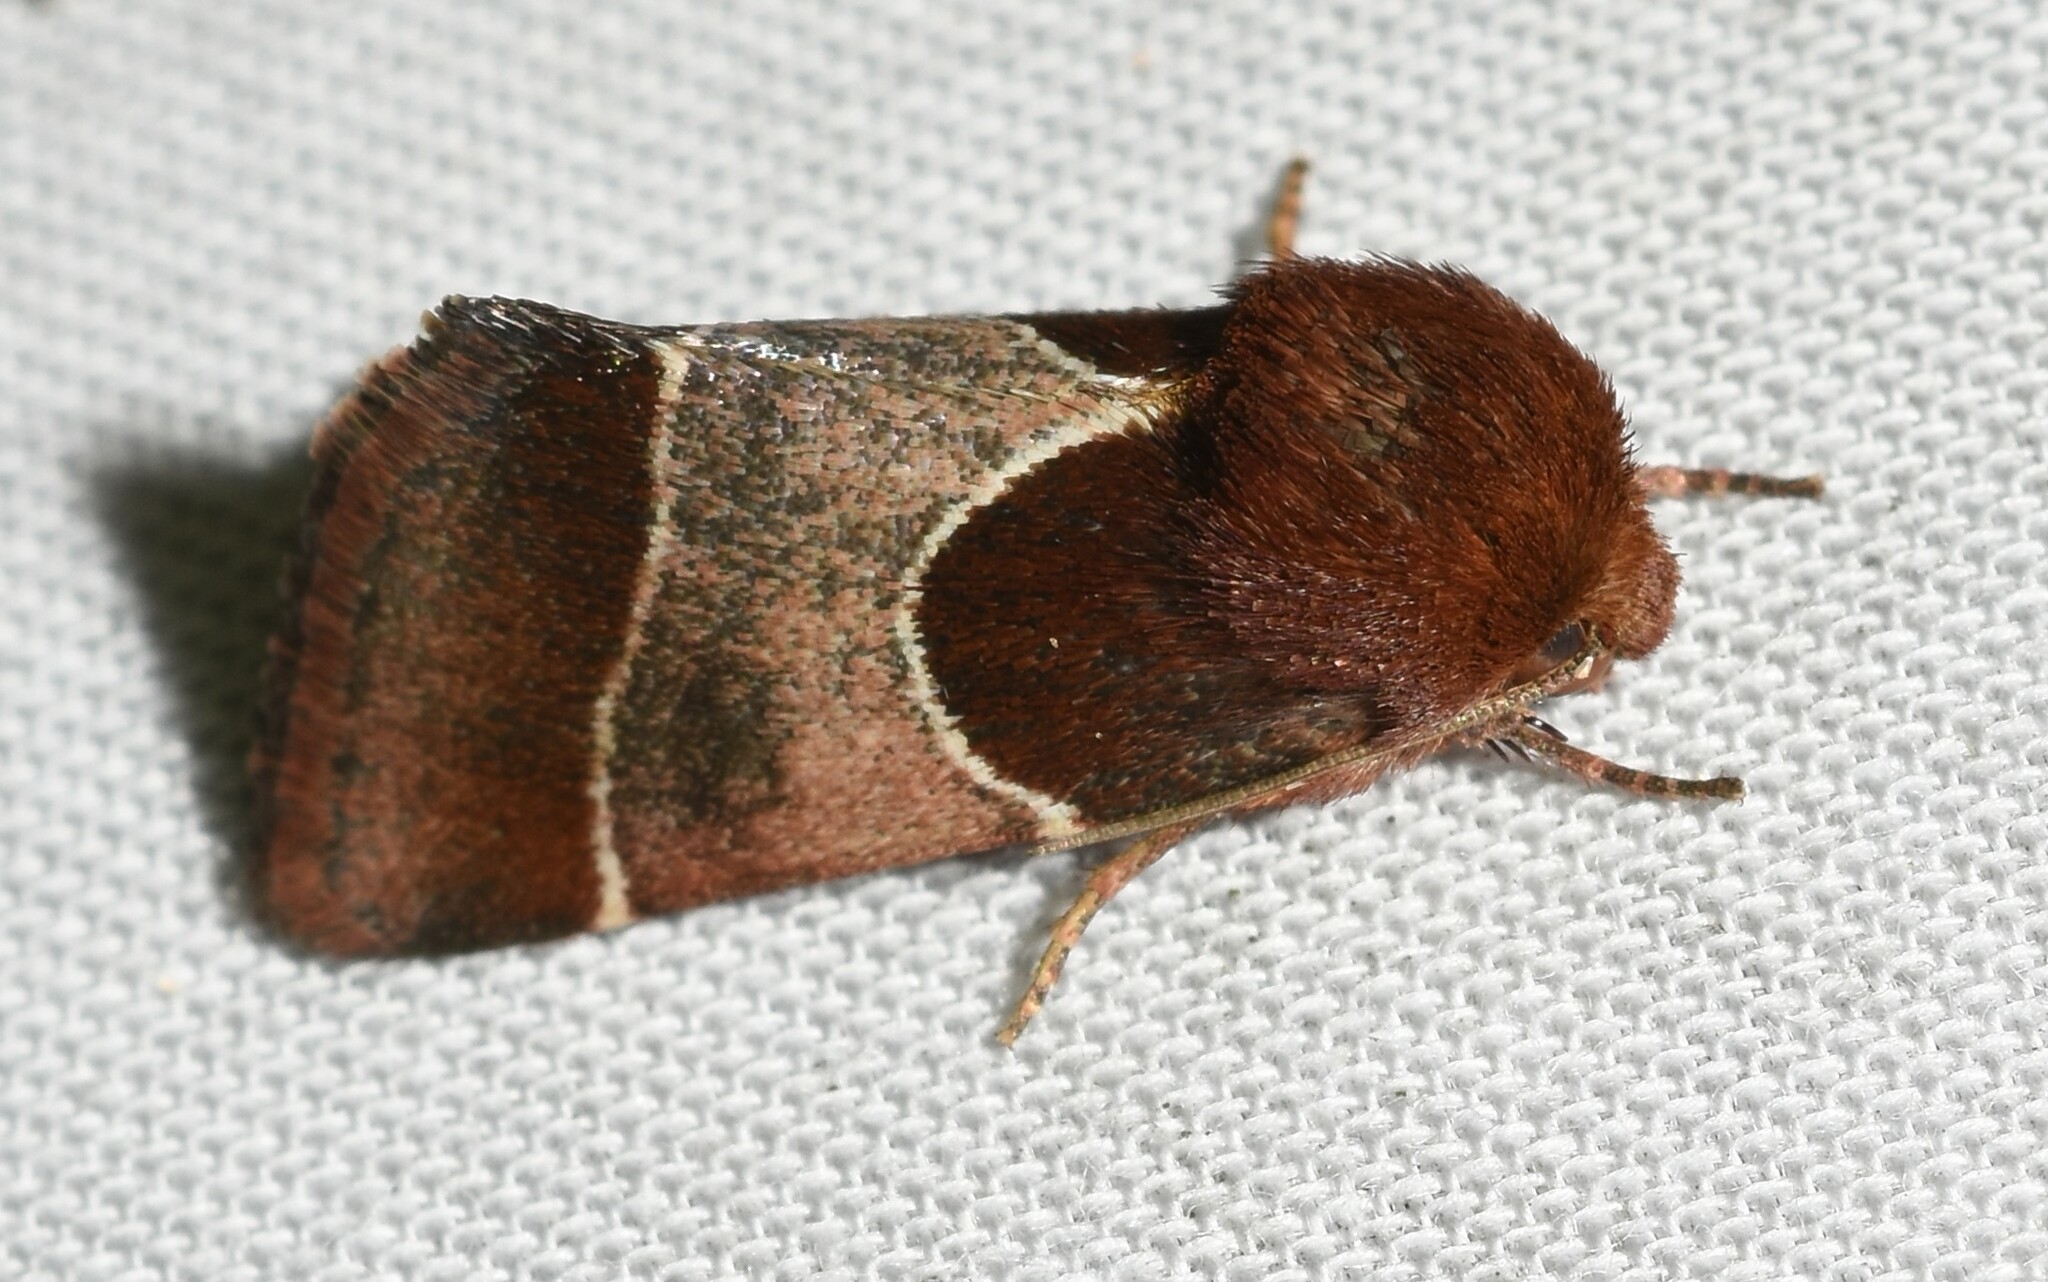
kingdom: Animalia
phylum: Arthropoda
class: Insecta
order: Lepidoptera
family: Noctuidae
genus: Schinia
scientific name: Schinia arcigera
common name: Arcigera flower moth
